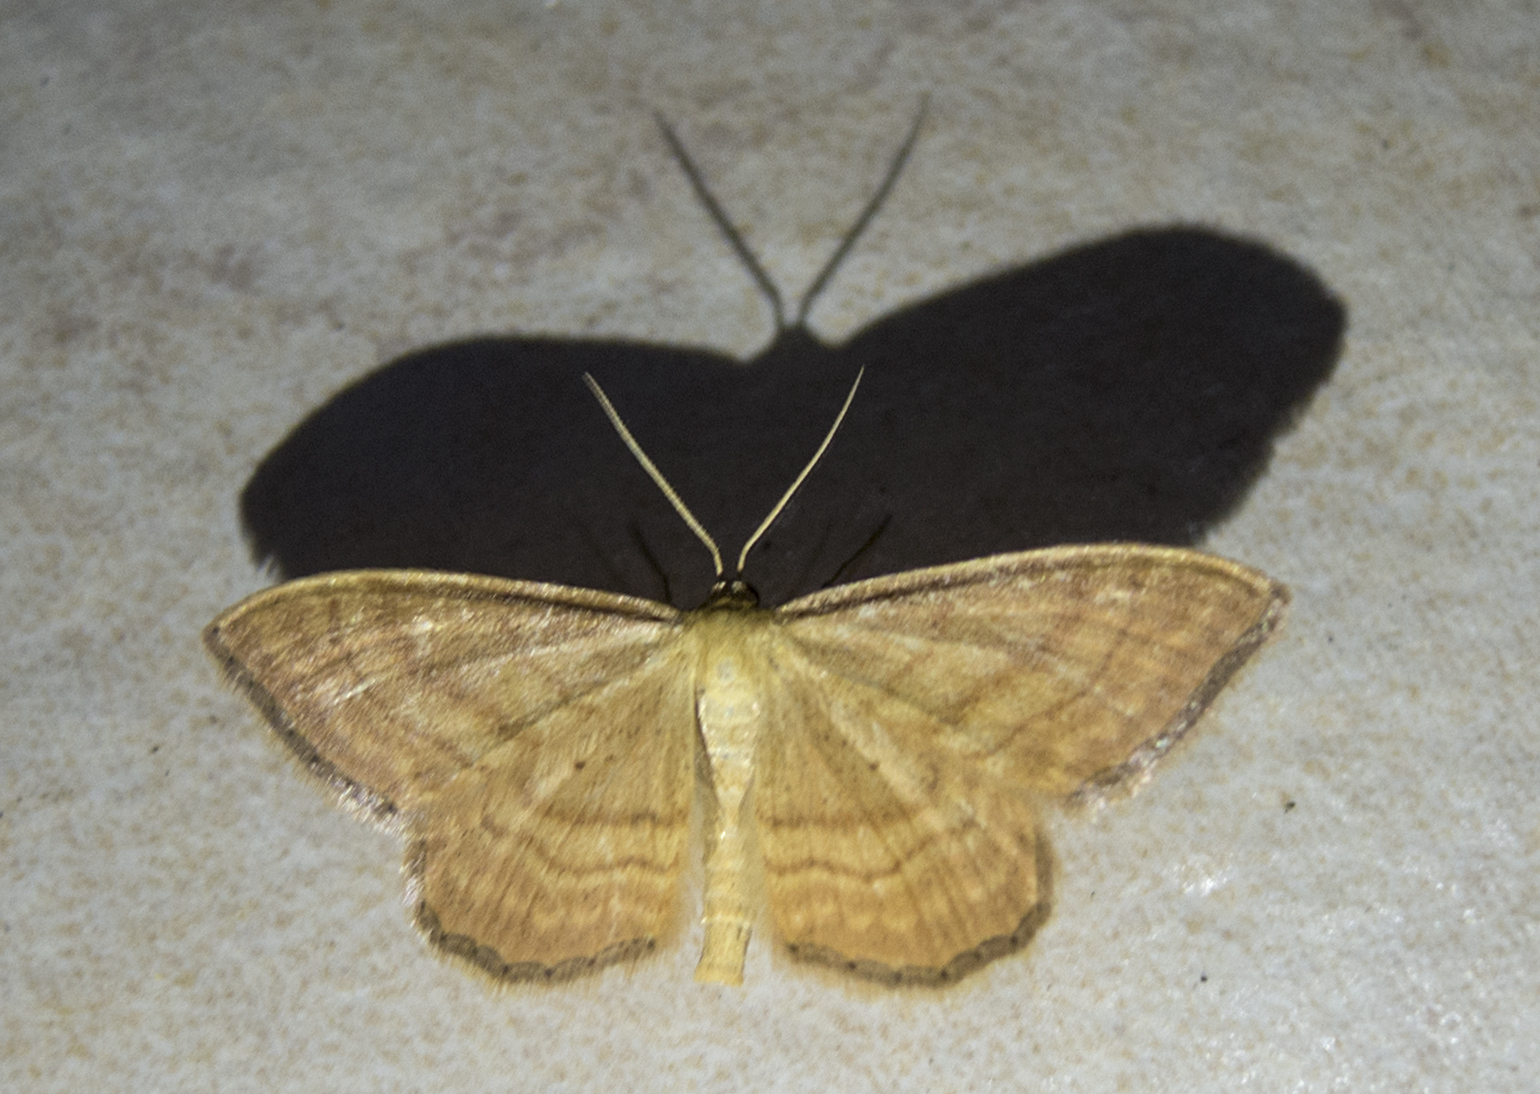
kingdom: Animalia
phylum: Arthropoda
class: Insecta
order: Lepidoptera
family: Geometridae
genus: Idaea
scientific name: Idaea ochrata
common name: Bright wave
